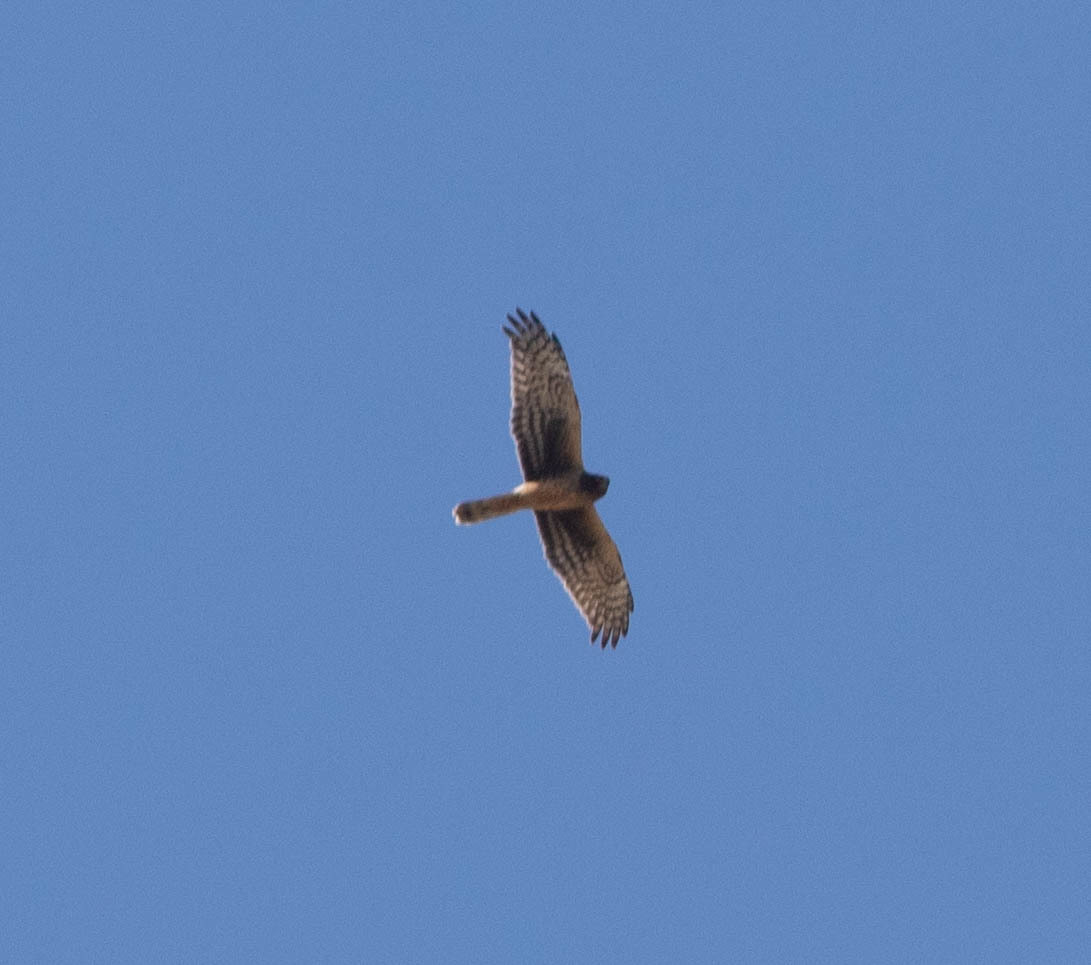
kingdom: Animalia
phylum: Chordata
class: Aves
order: Accipitriformes
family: Accipitridae
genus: Circus
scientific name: Circus cyaneus
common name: Hen harrier
